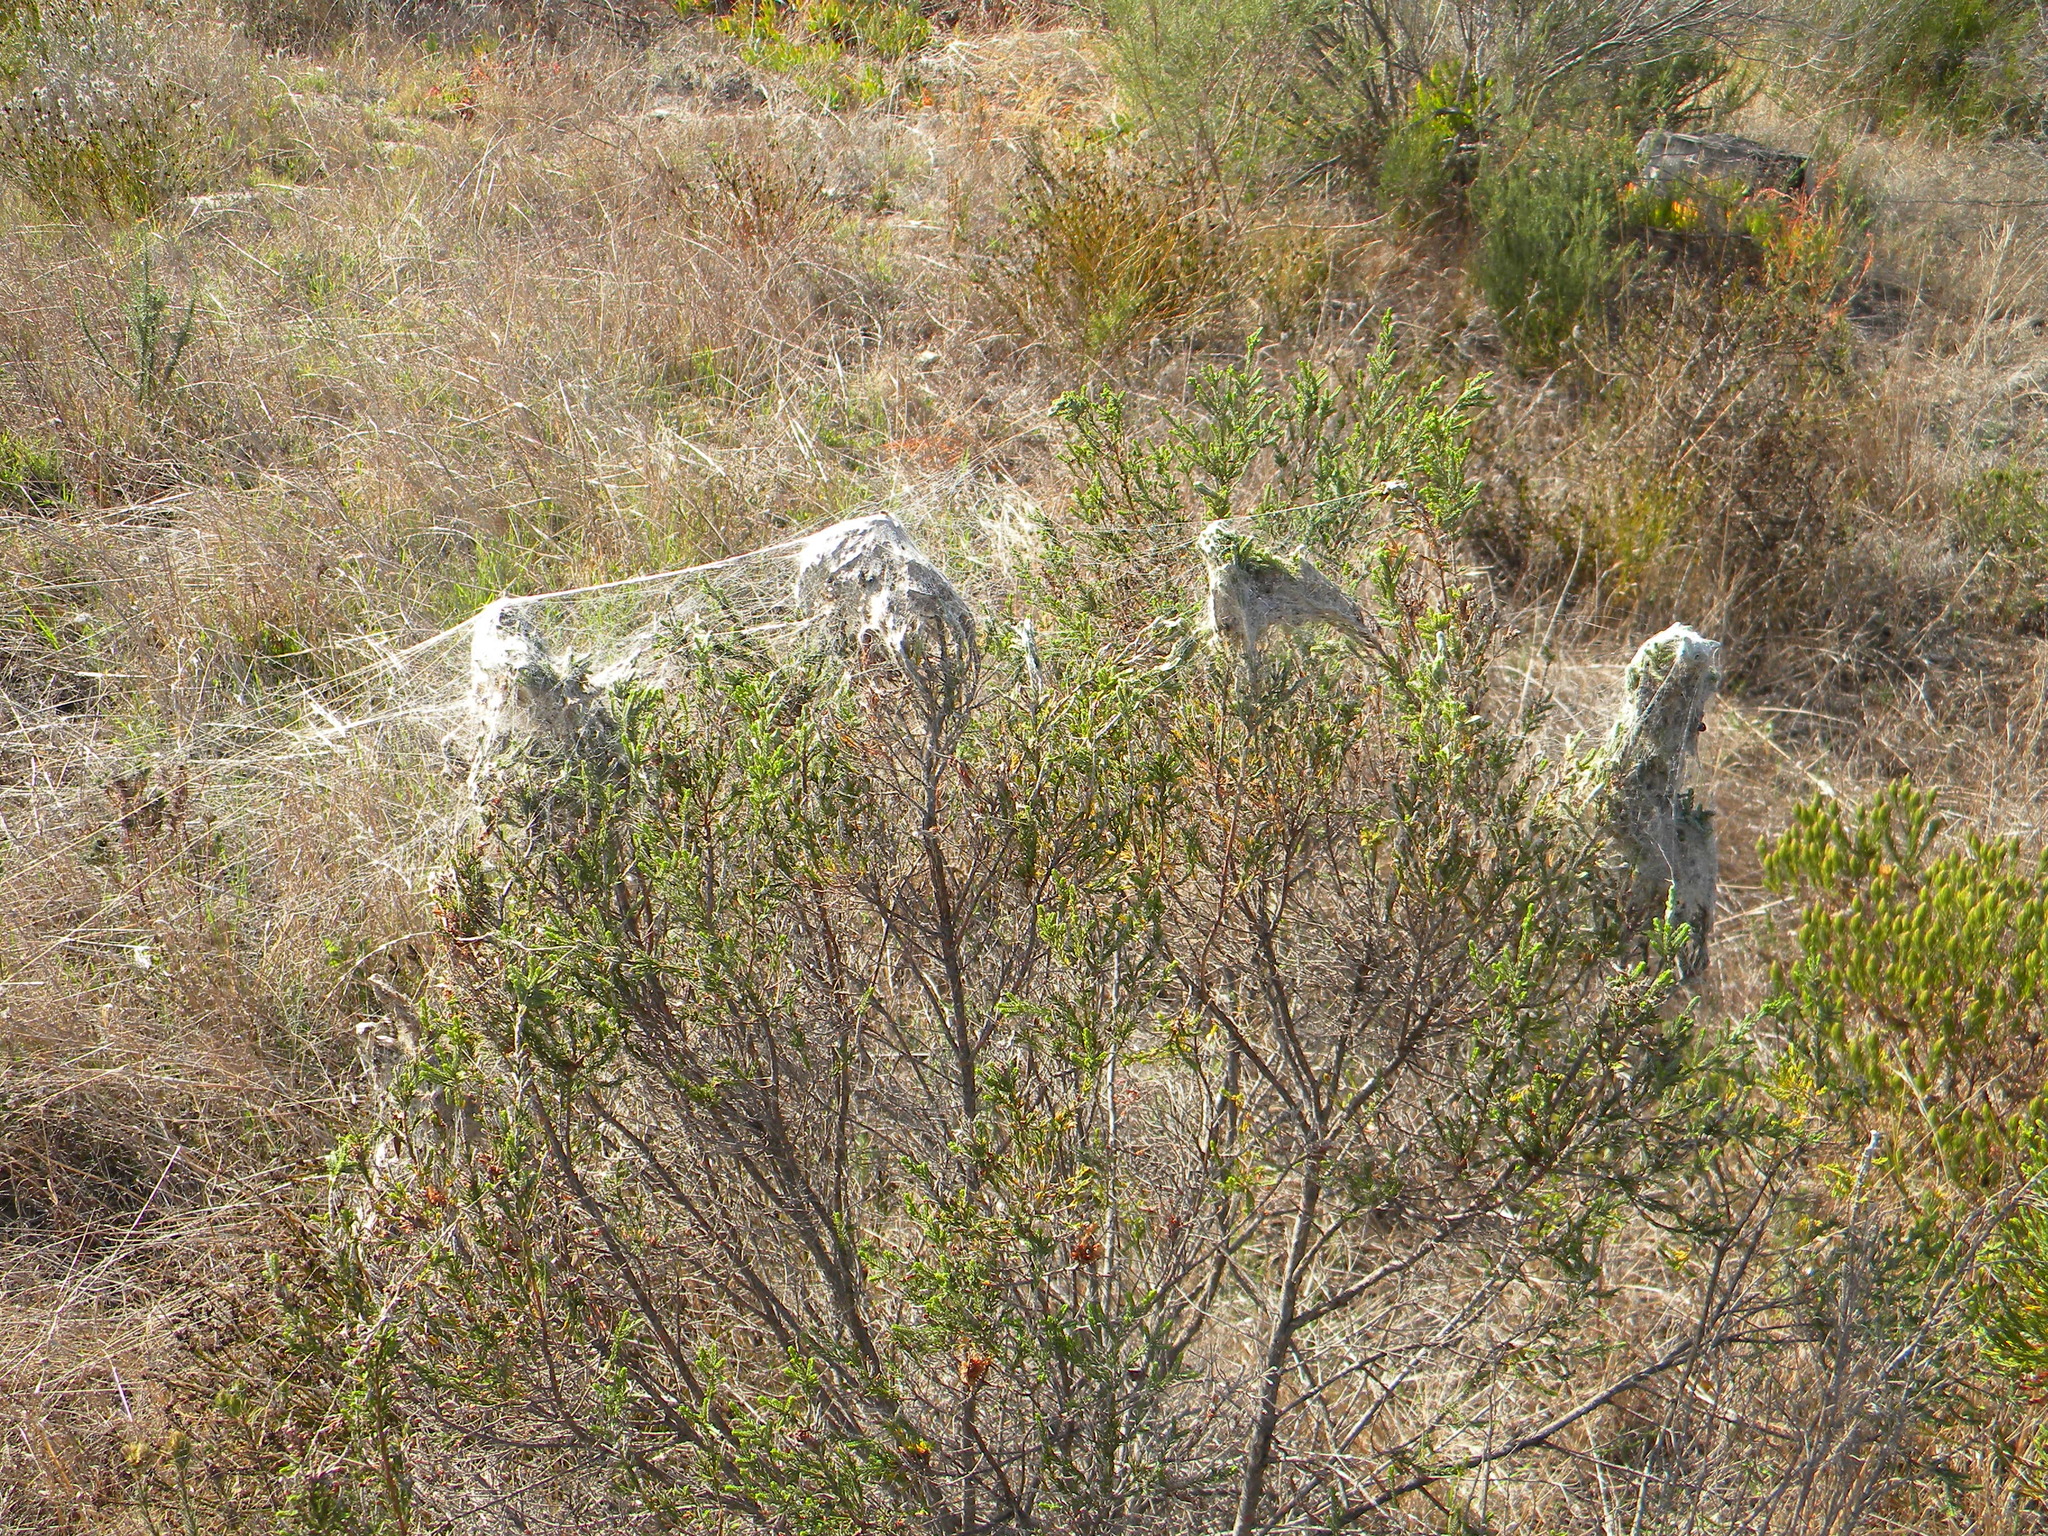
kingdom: Animalia
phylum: Arthropoda
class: Arachnida
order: Araneae
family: Eresidae
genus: Stegodyphus
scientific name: Stegodyphus dumicola
